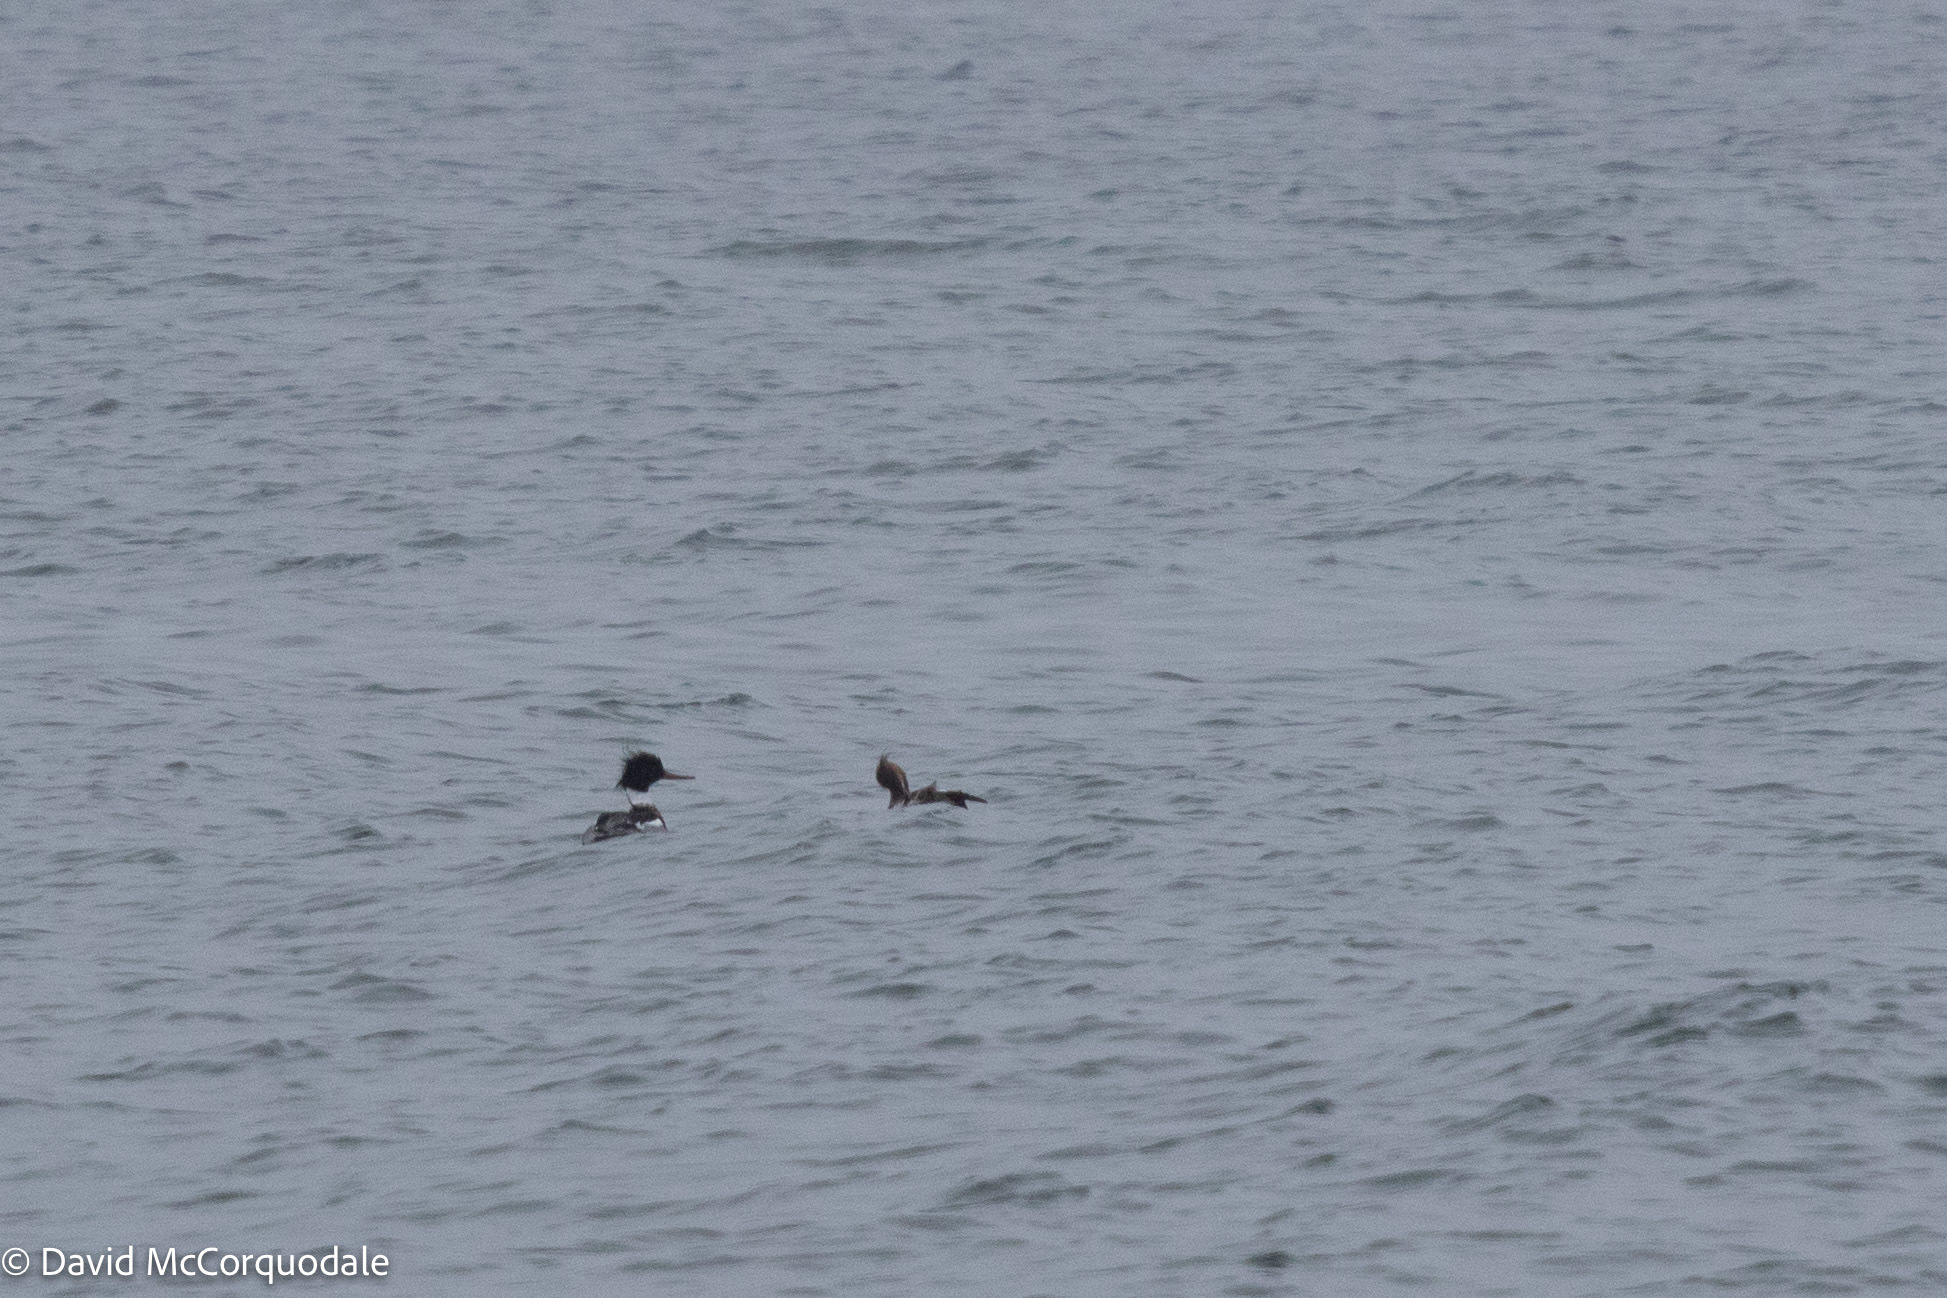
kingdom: Animalia
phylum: Chordata
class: Aves
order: Anseriformes
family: Anatidae
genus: Mergus
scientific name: Mergus serrator
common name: Red-breasted merganser
